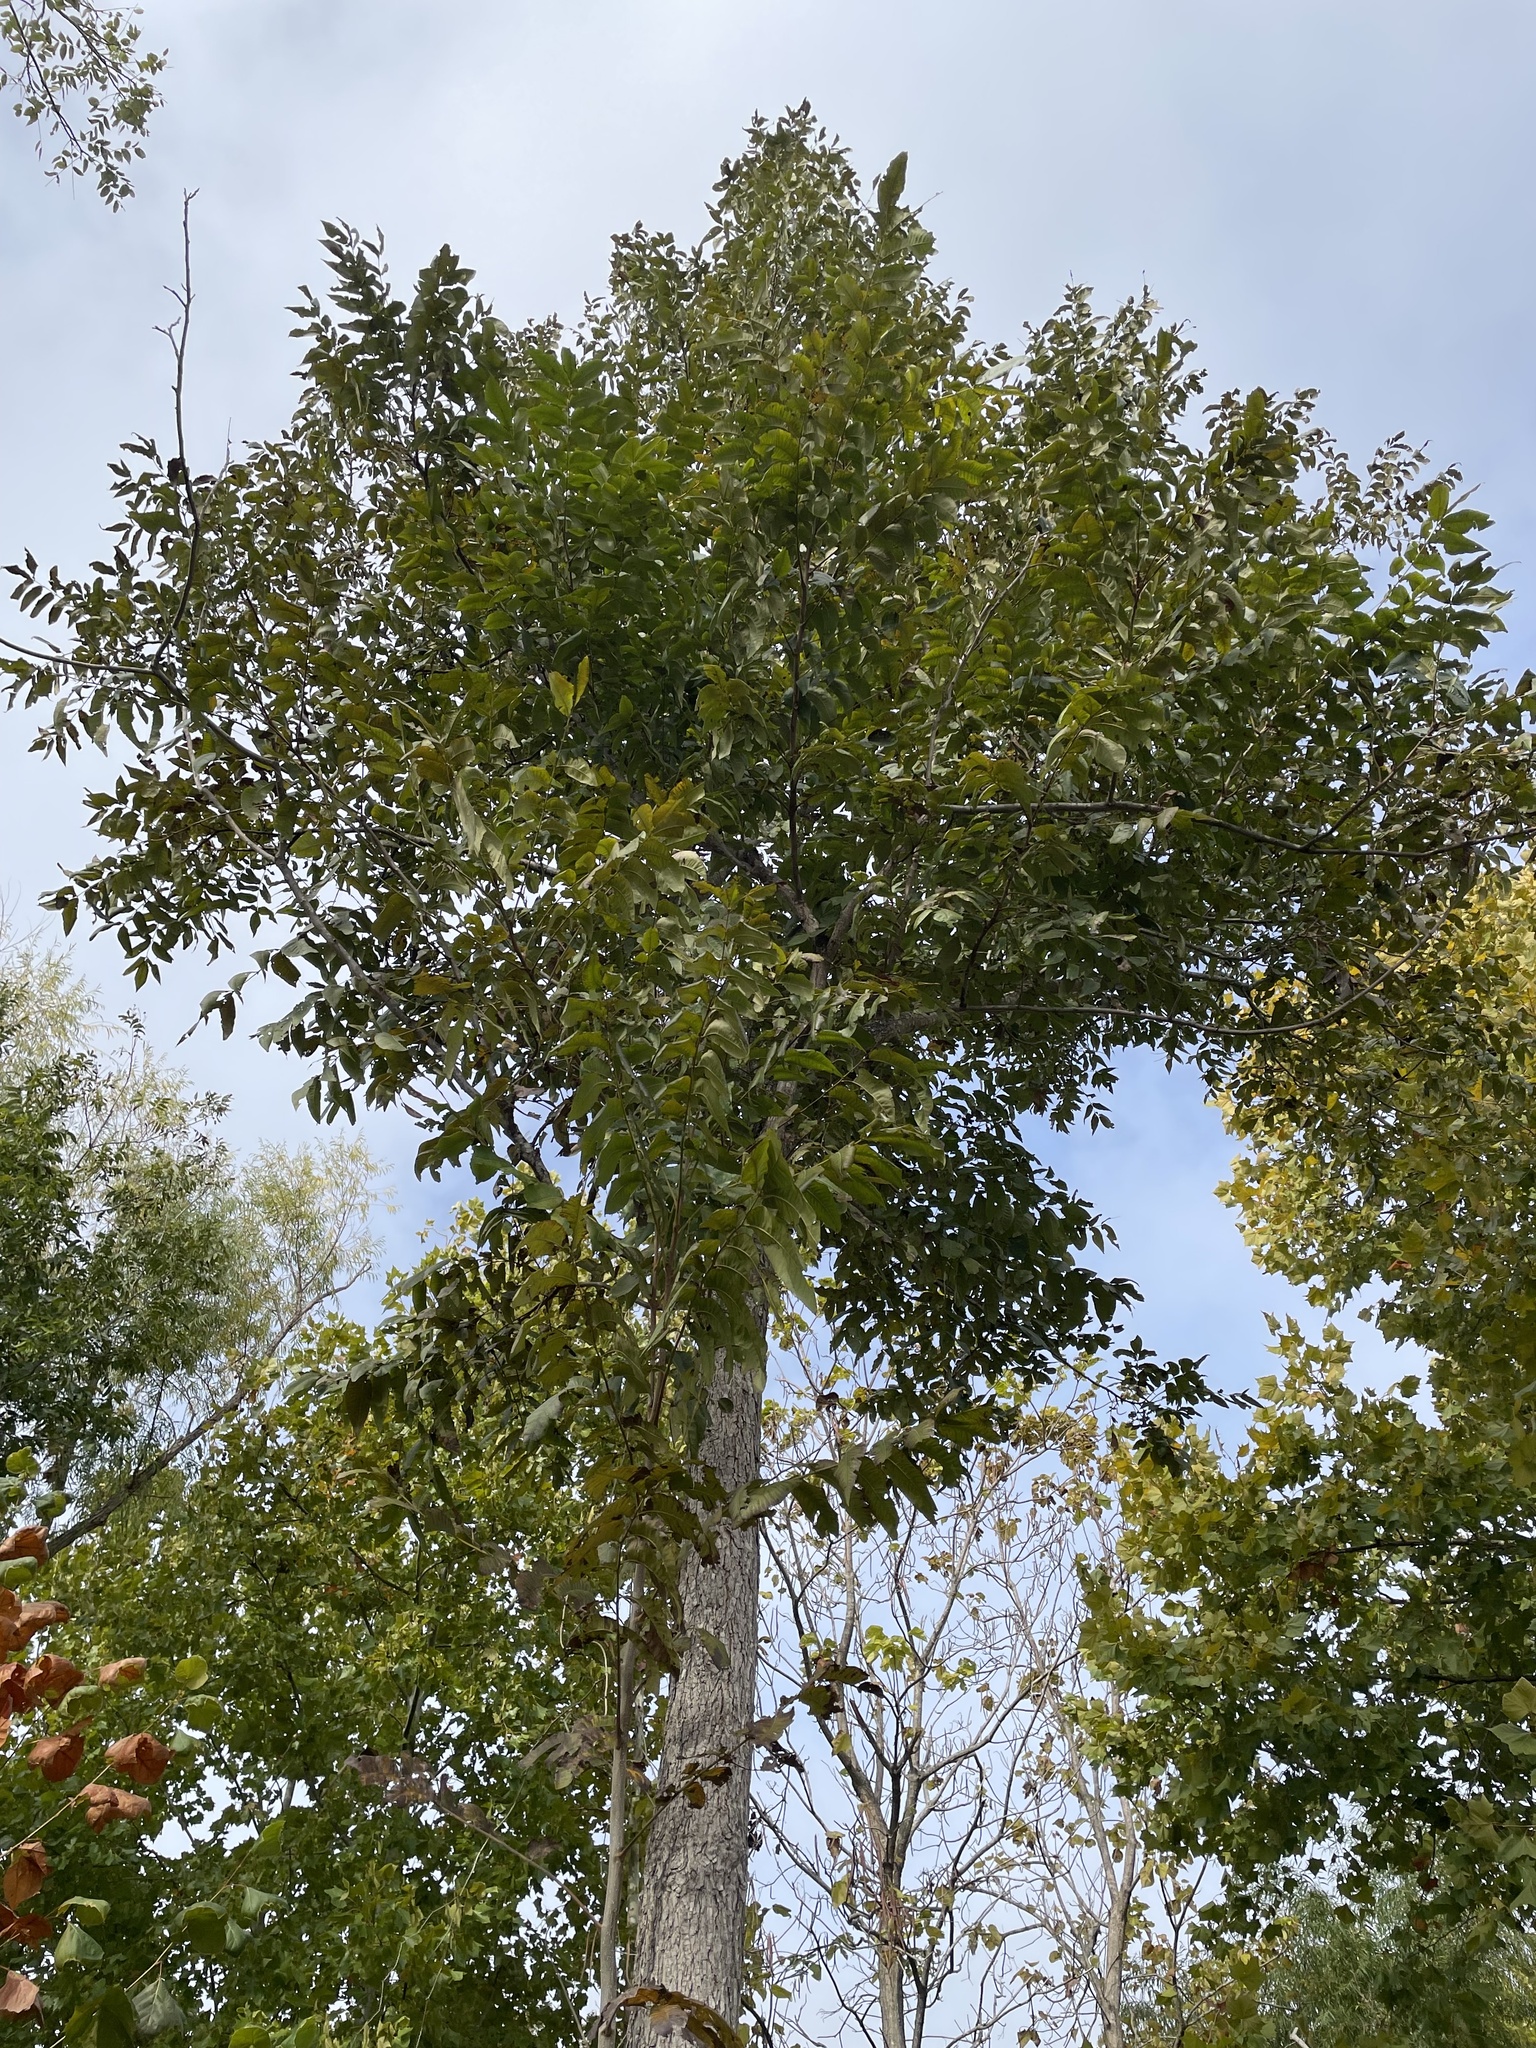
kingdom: Plantae
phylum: Tracheophyta
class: Magnoliopsida
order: Fagales
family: Juglandaceae
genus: Carya
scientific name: Carya illinoinensis
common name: Pecan
